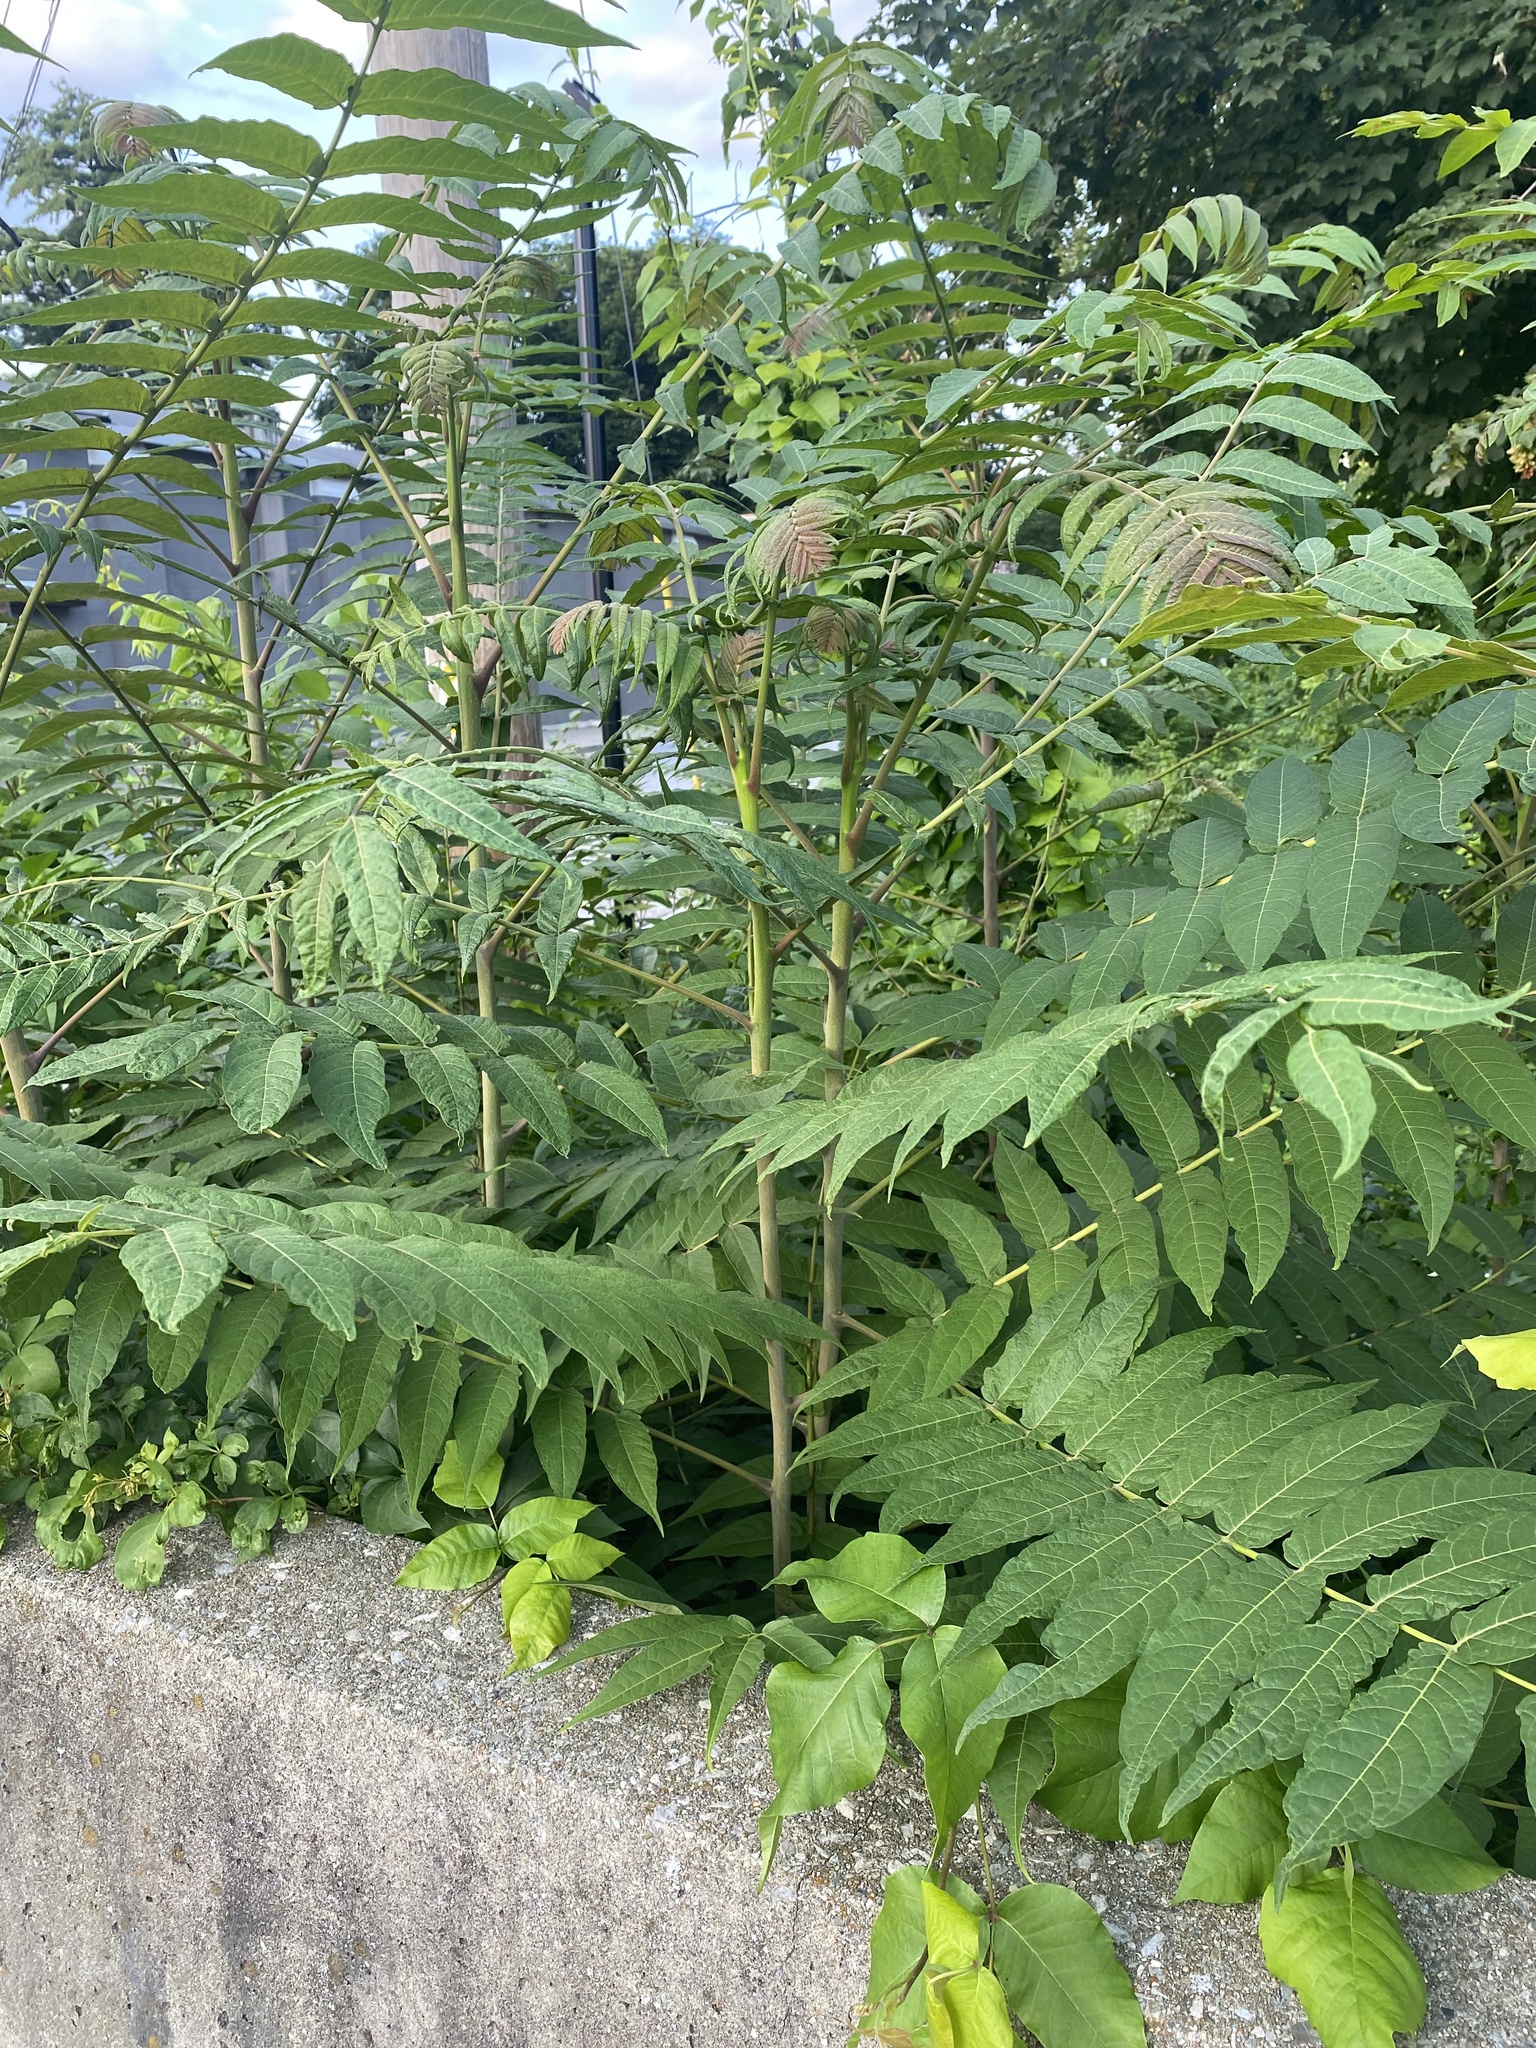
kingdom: Plantae
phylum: Tracheophyta
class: Magnoliopsida
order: Sapindales
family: Simaroubaceae
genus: Ailanthus
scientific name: Ailanthus altissima
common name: Tree-of-heaven
